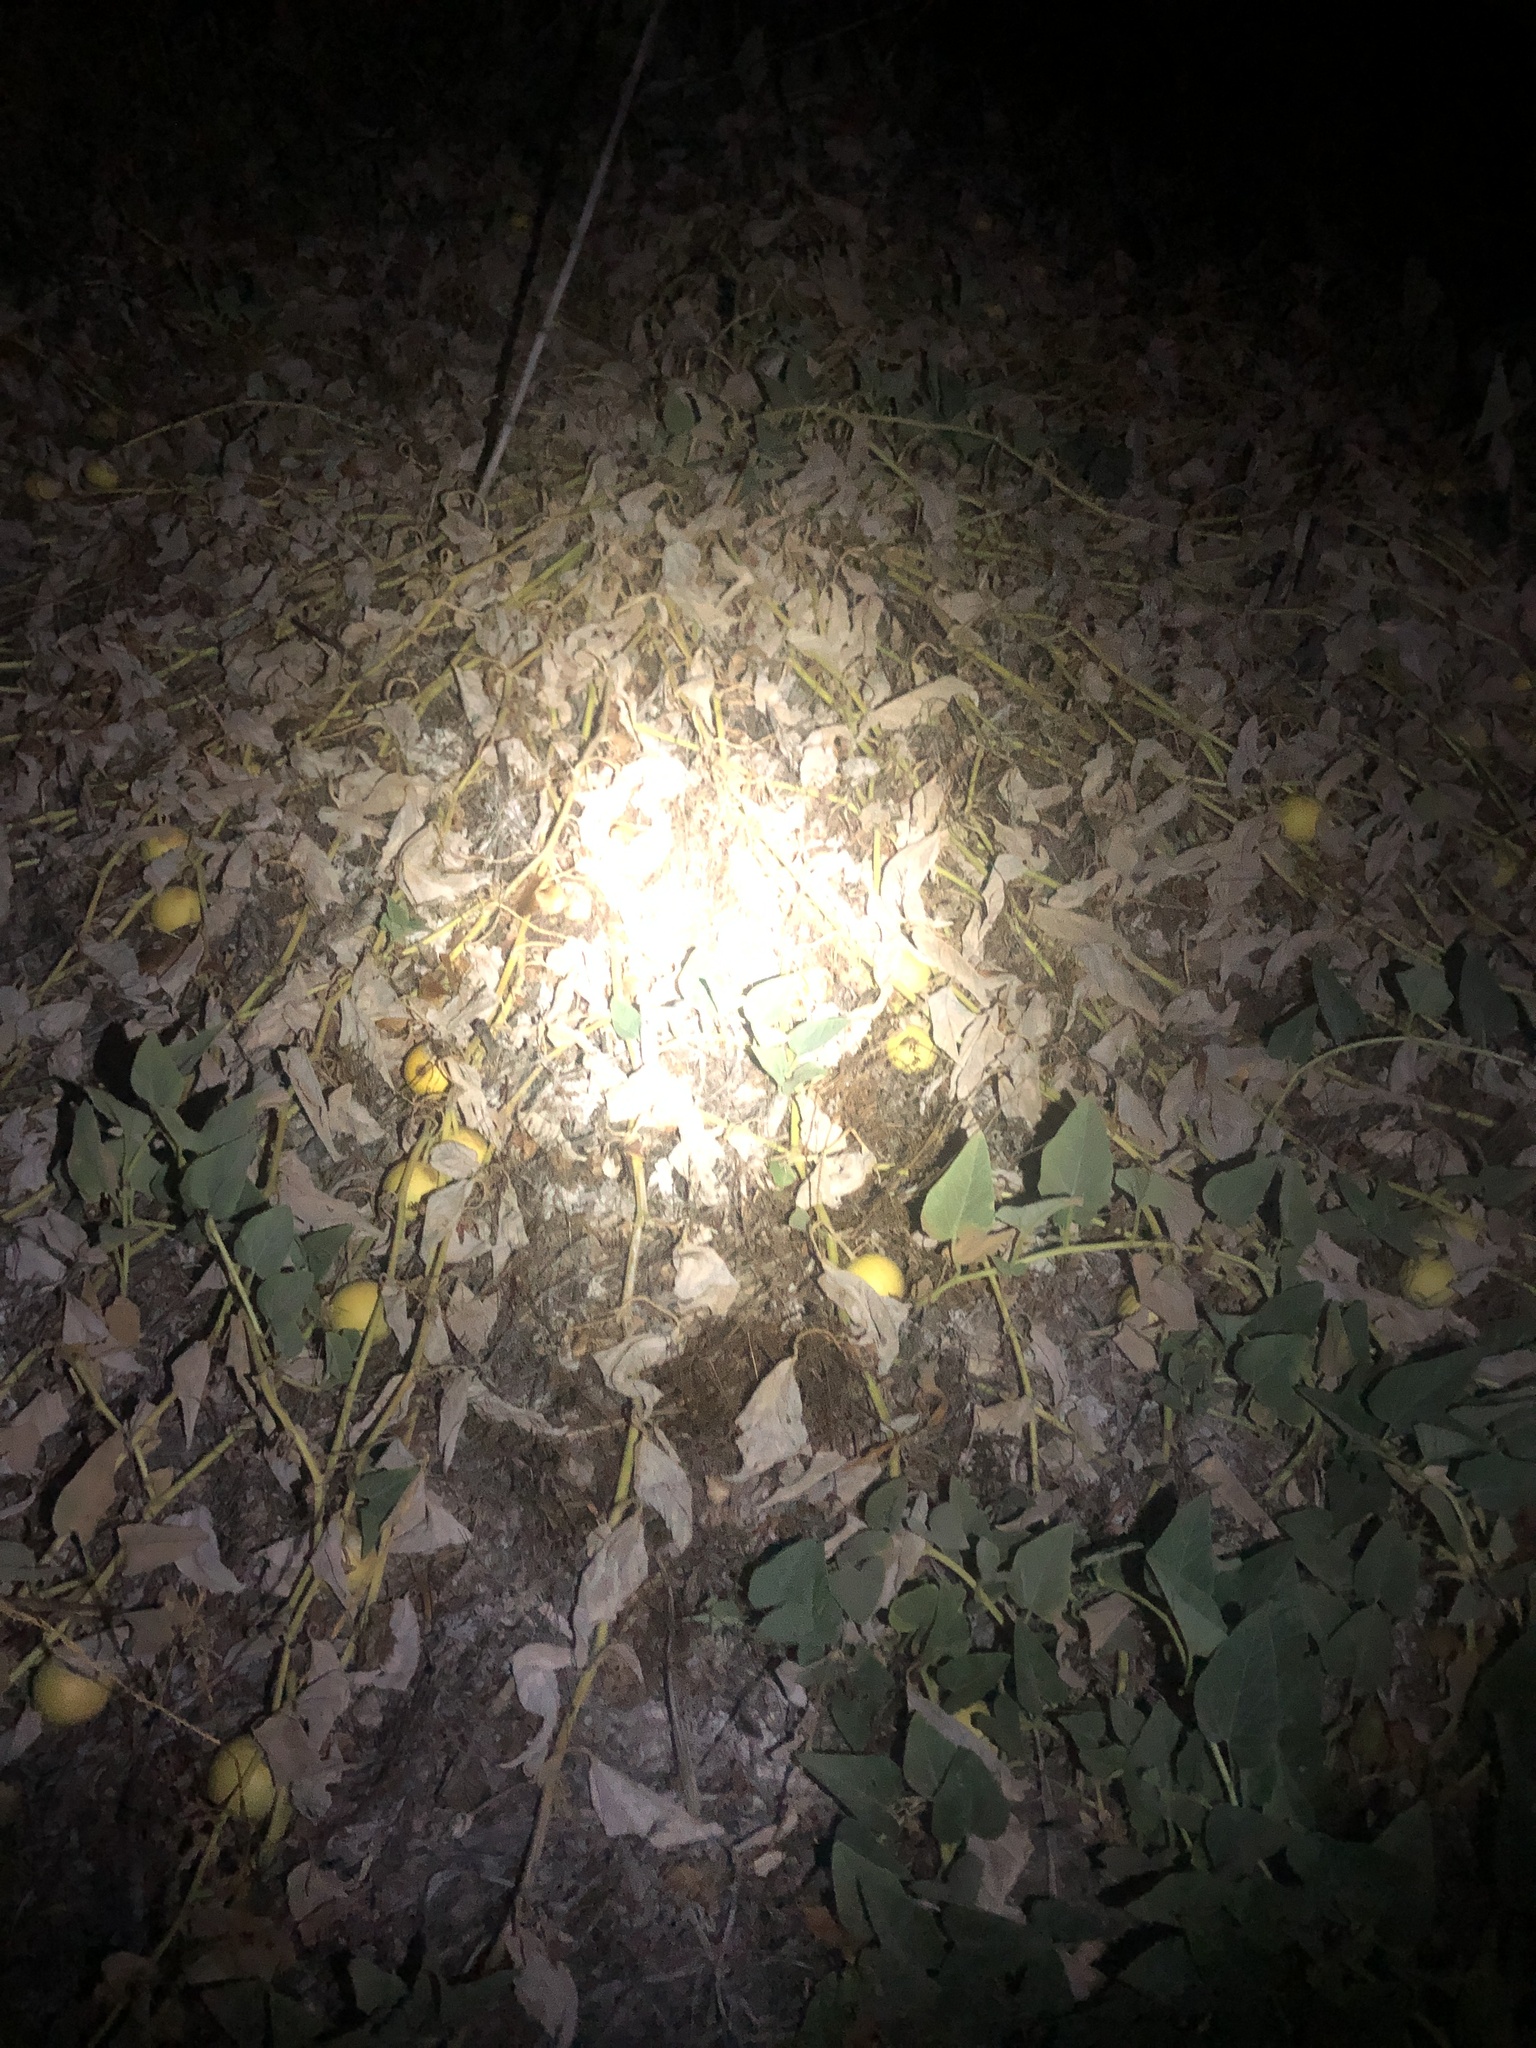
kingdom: Plantae
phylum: Tracheophyta
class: Magnoliopsida
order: Cucurbitales
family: Cucurbitaceae
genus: Cucurbita
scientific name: Cucurbita foetidissima
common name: Buffalo gourd
